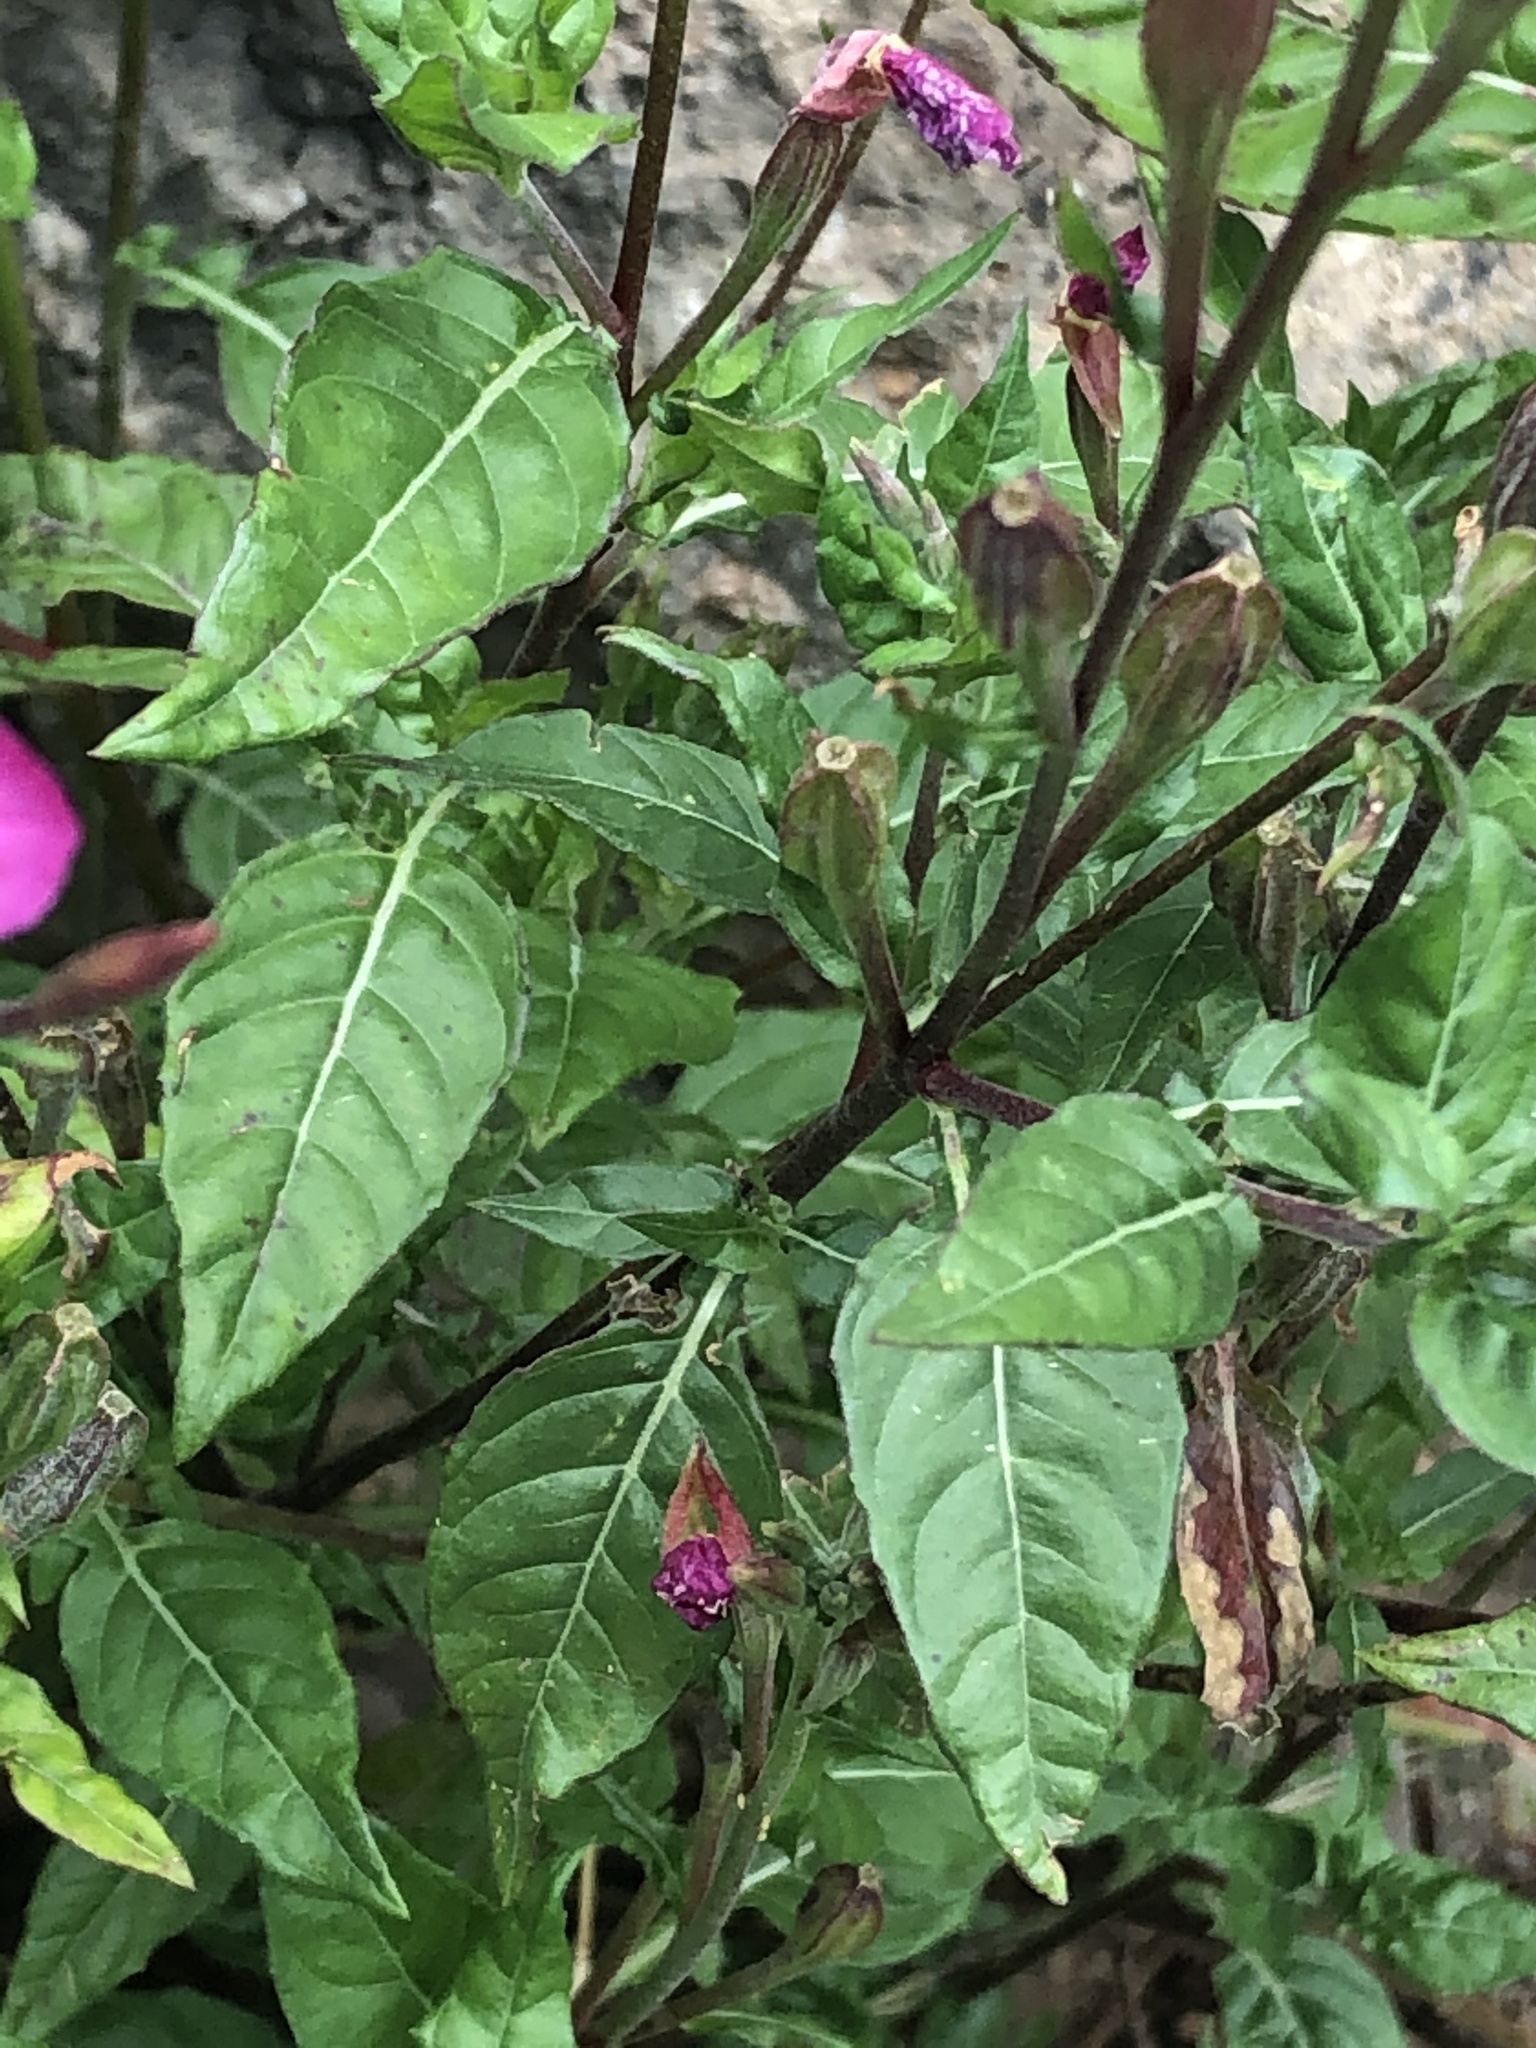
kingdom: Plantae
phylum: Tracheophyta
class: Magnoliopsida
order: Myrtales
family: Onagraceae
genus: Oenothera
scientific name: Oenothera rosea
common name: Rosy evening-primrose
